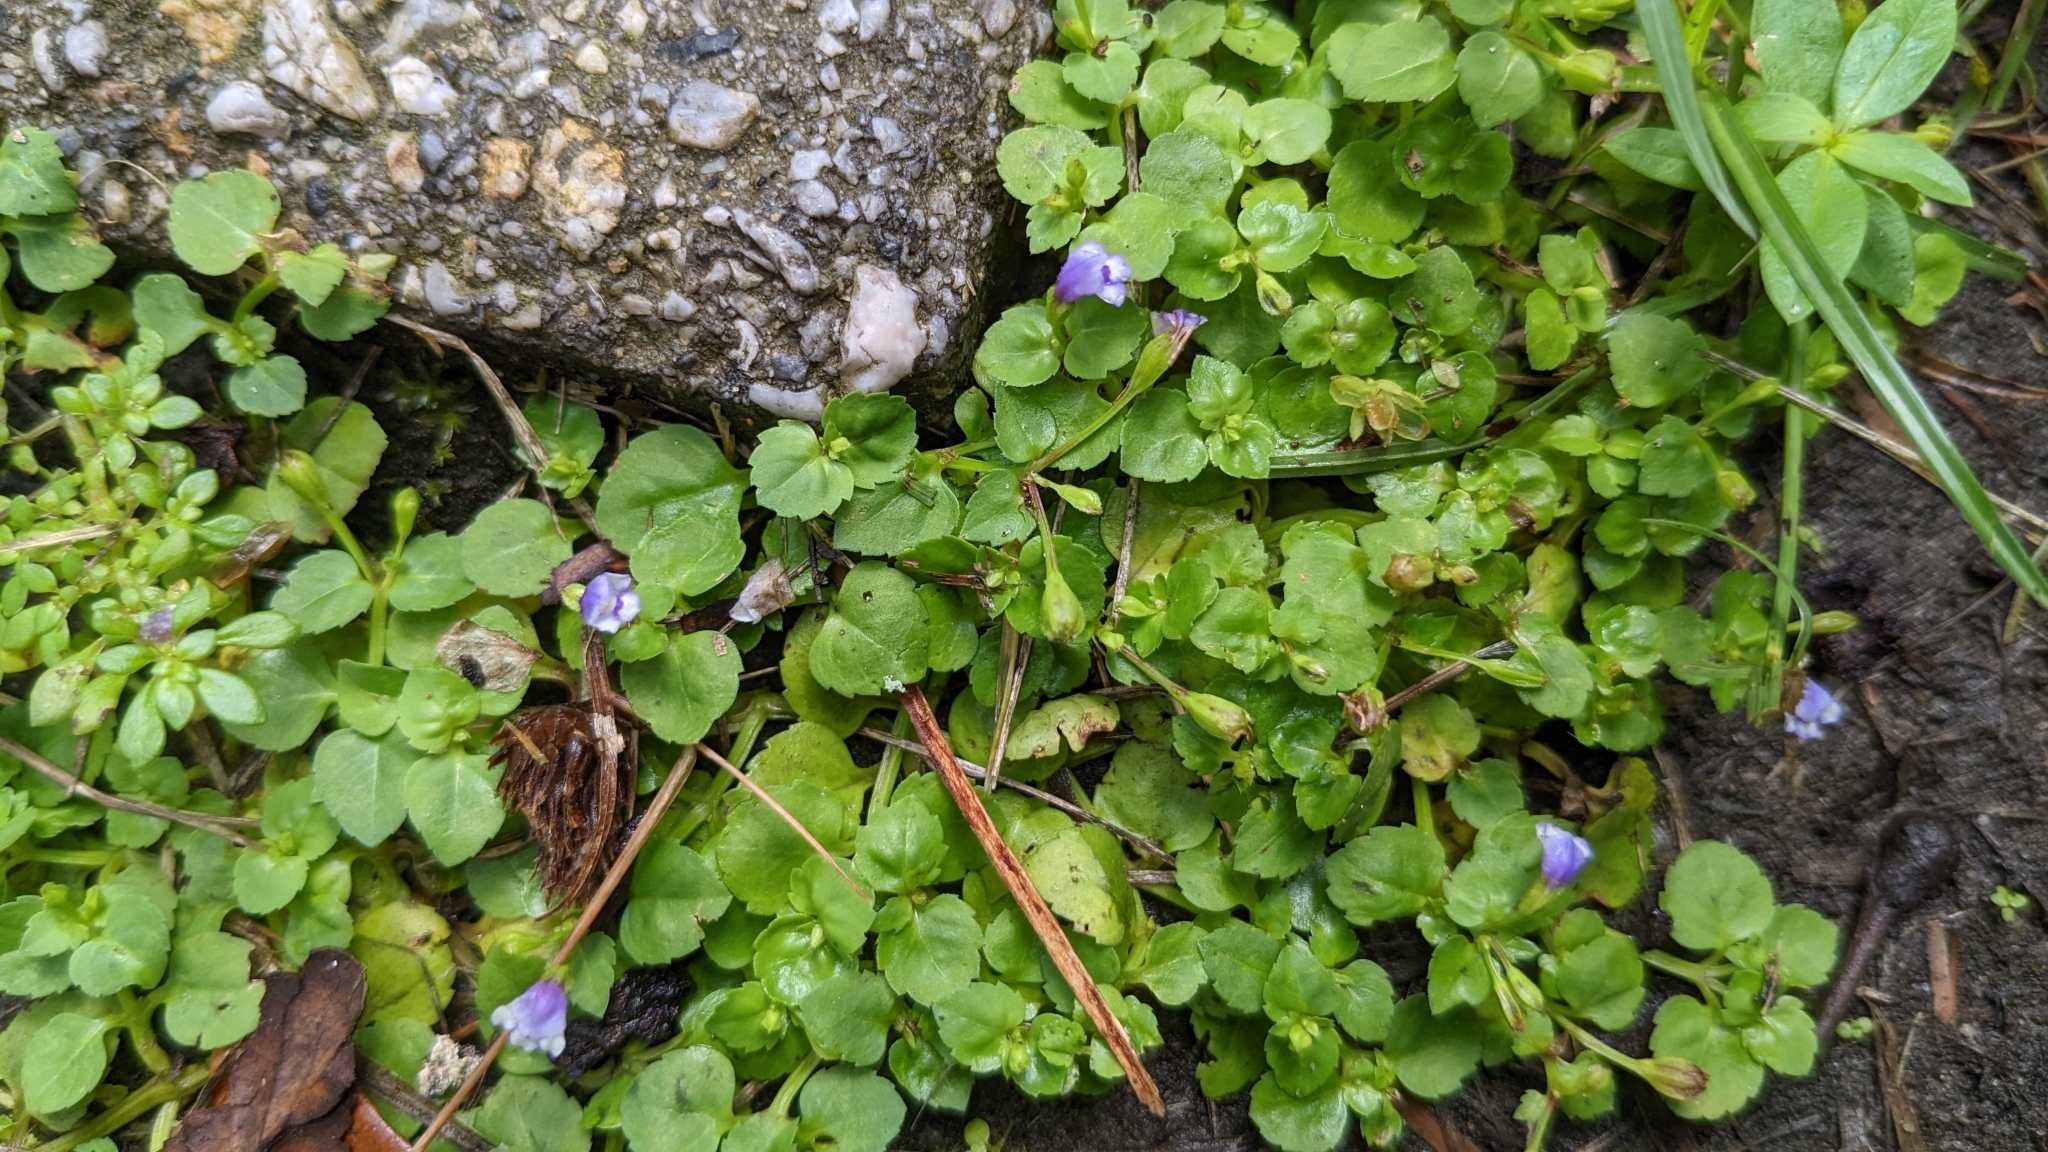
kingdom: Plantae
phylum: Tracheophyta
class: Magnoliopsida
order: Lamiales
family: Linderniaceae
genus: Torenia
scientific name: Torenia crustacea
